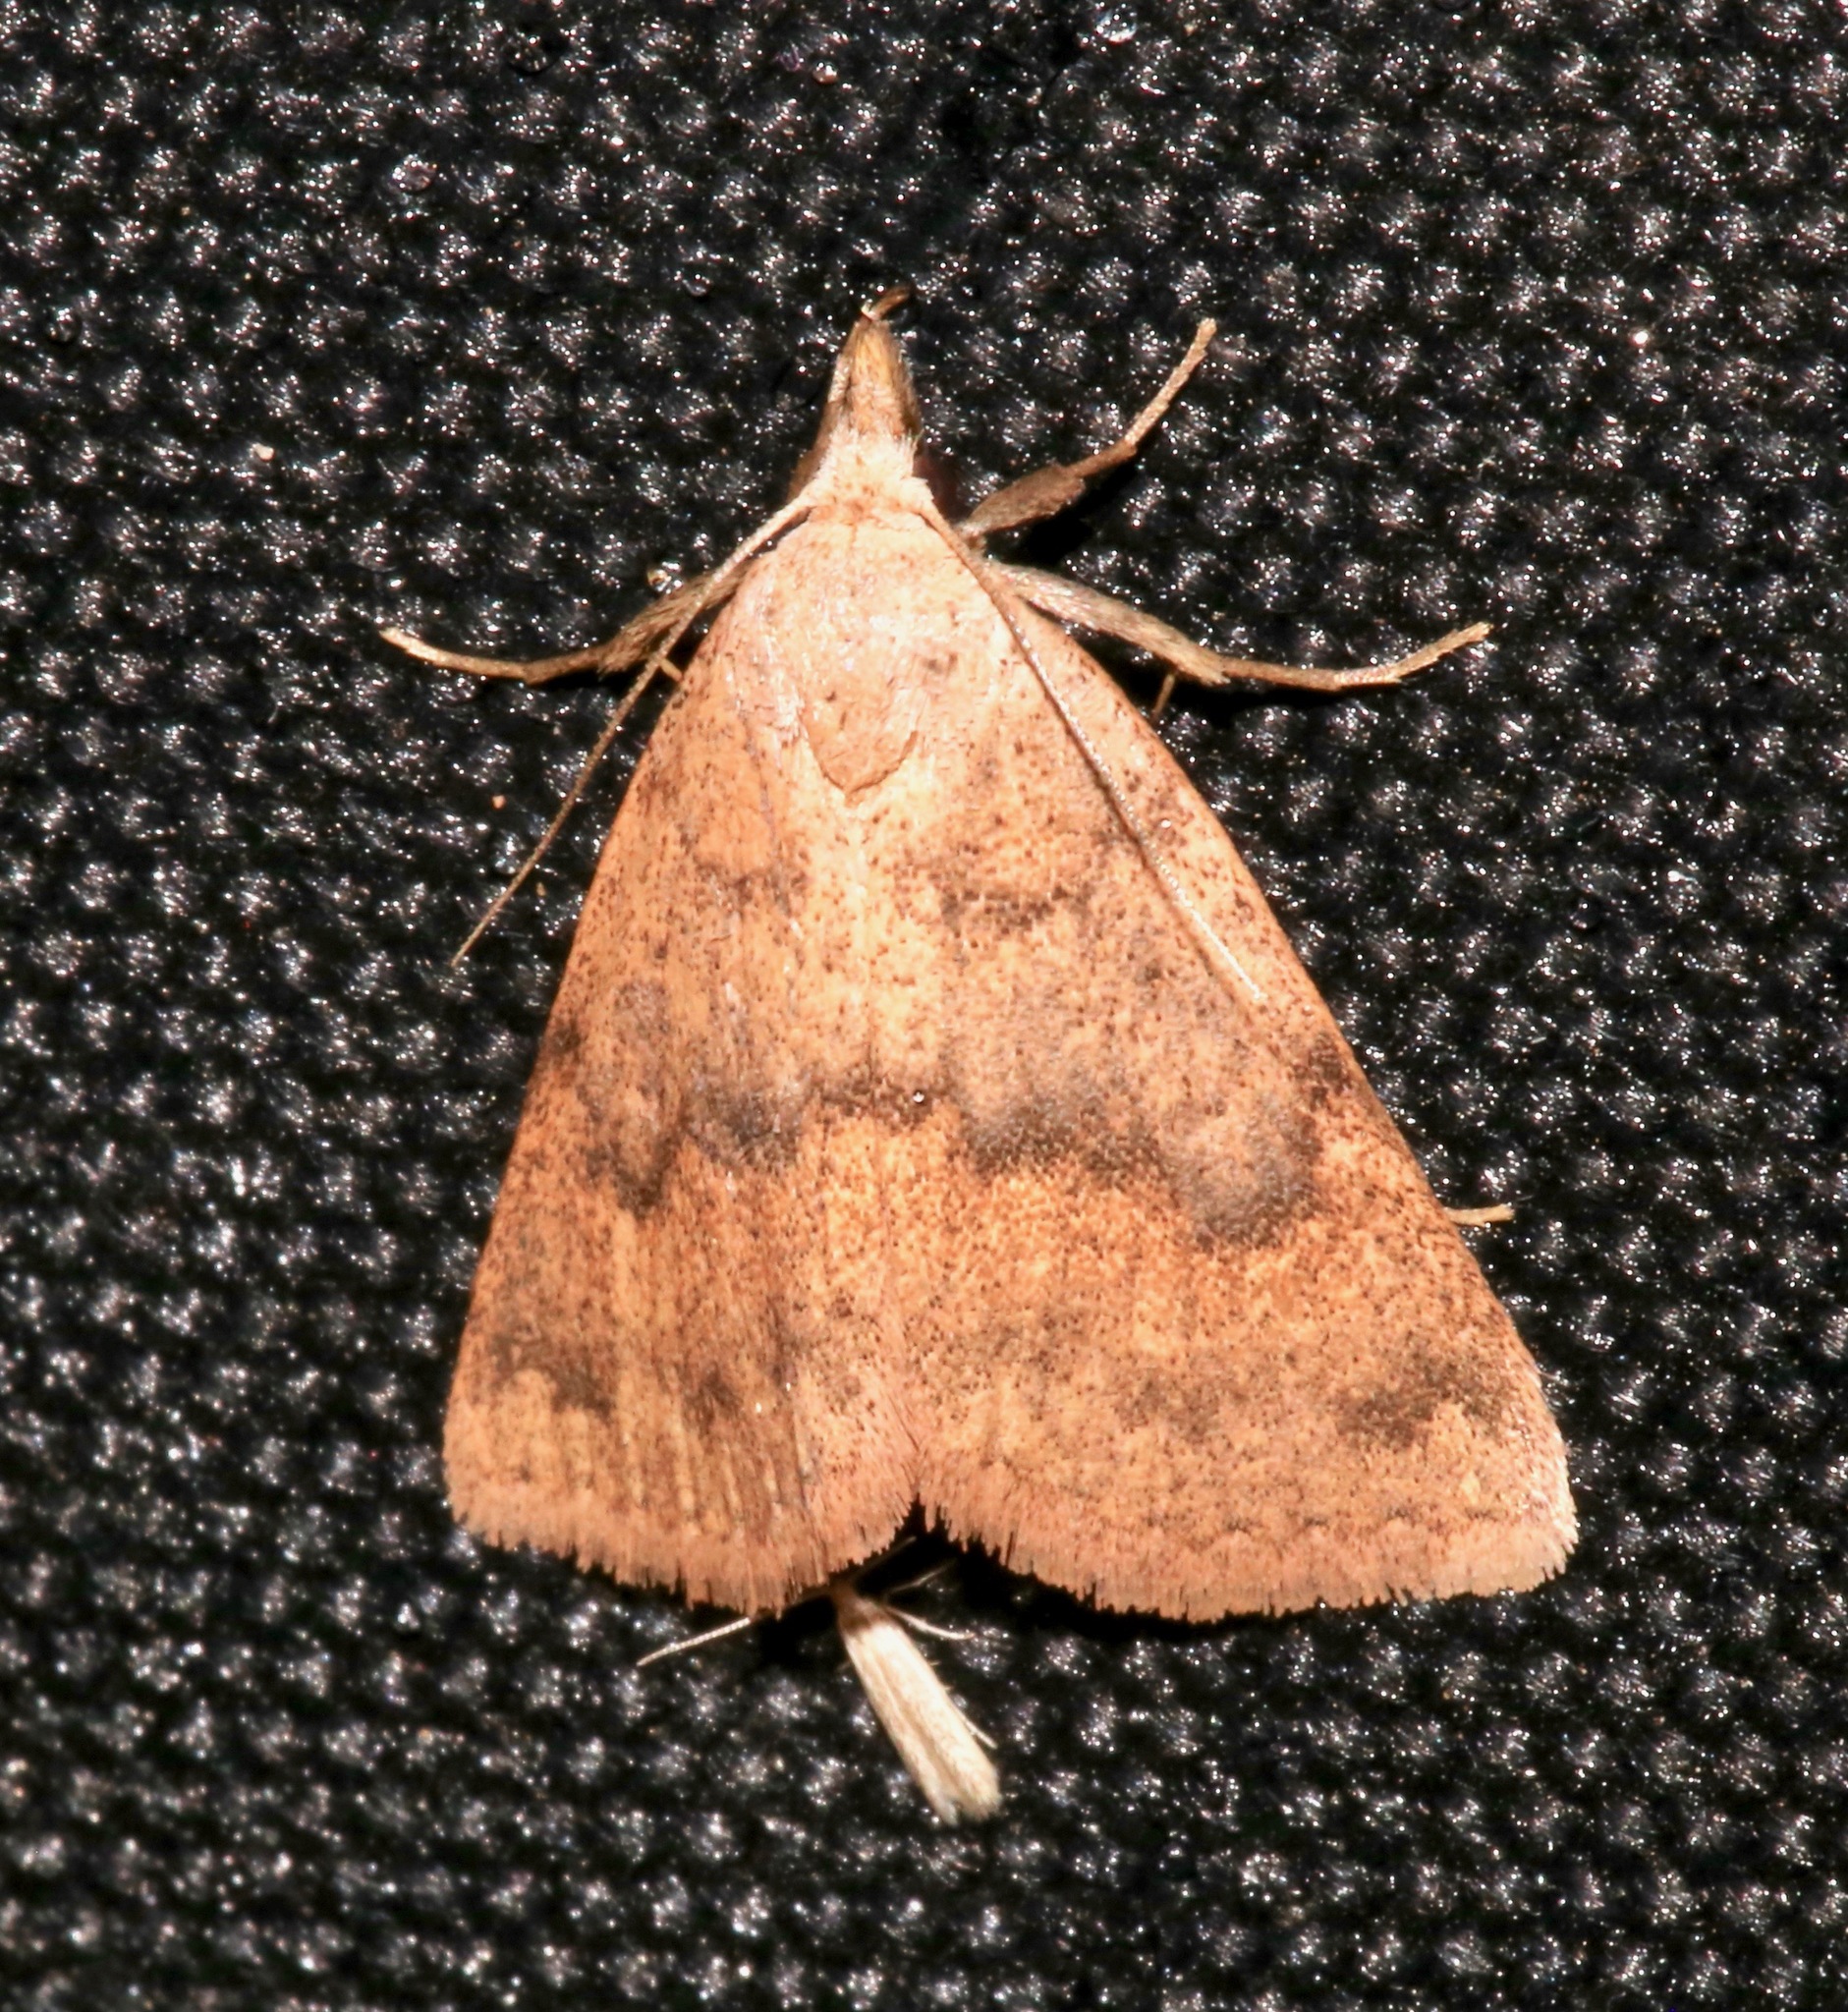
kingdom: Animalia
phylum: Arthropoda
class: Insecta
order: Lepidoptera
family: Erebidae
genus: Pseudorgyia
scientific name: Pseudorgyia russula
